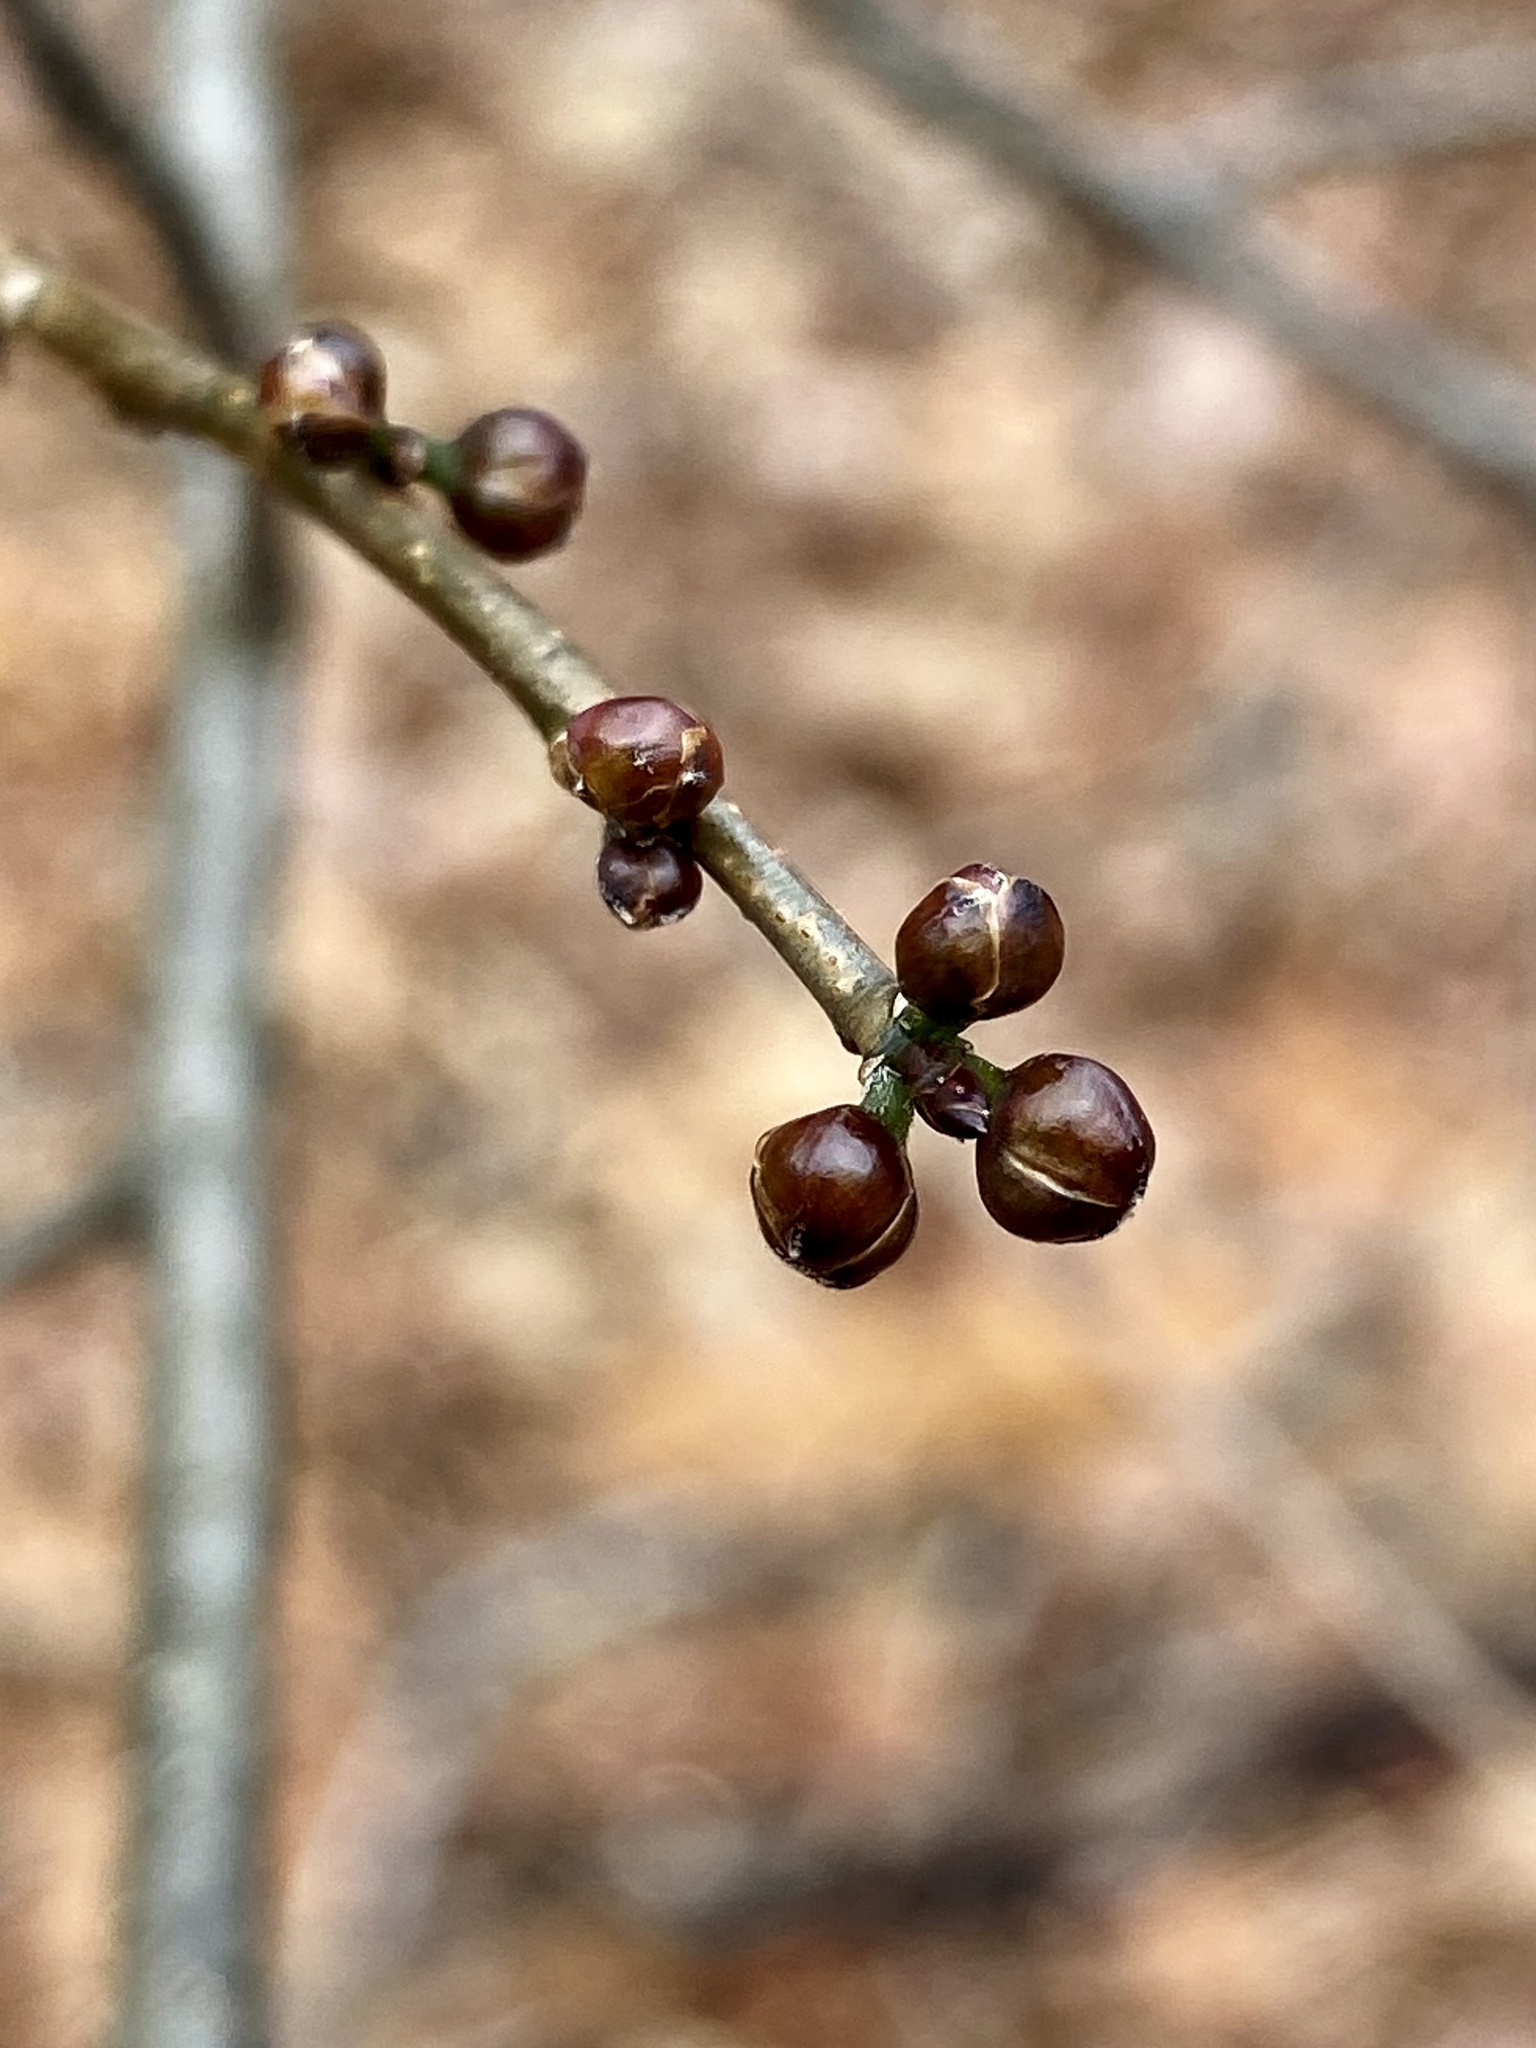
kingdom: Plantae
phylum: Tracheophyta
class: Magnoliopsida
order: Laurales
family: Lauraceae
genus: Lindera
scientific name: Lindera benzoin
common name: Spicebush
